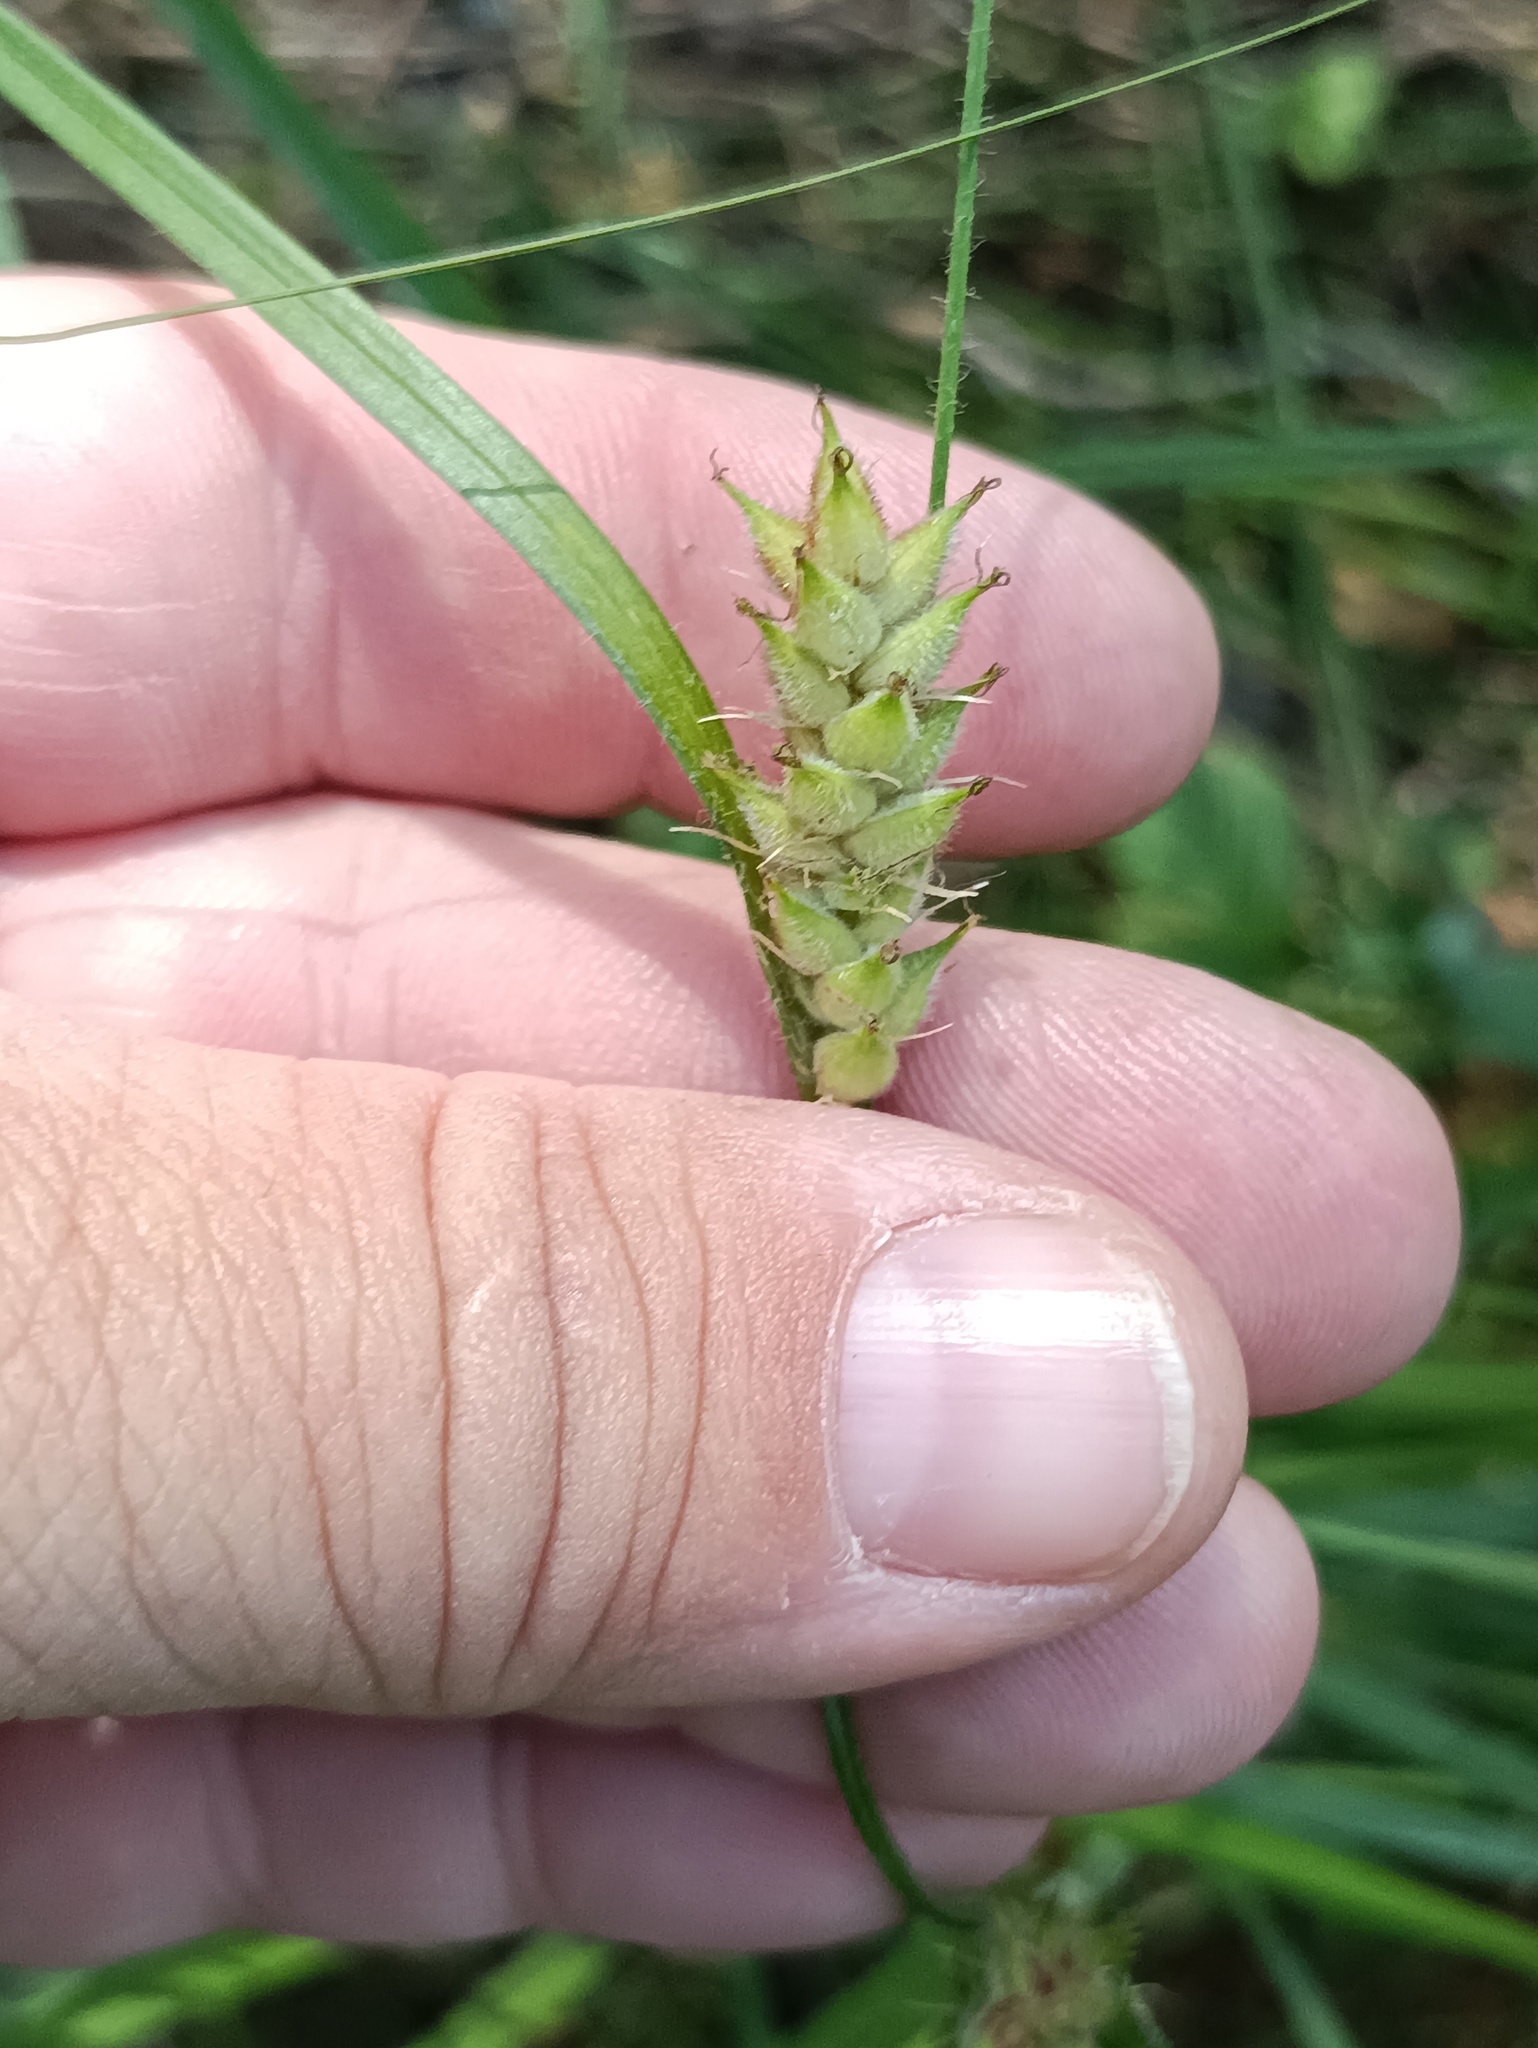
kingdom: Plantae
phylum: Tracheophyta
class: Liliopsida
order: Poales
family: Cyperaceae
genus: Carex
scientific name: Carex hirta
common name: Hairy sedge
